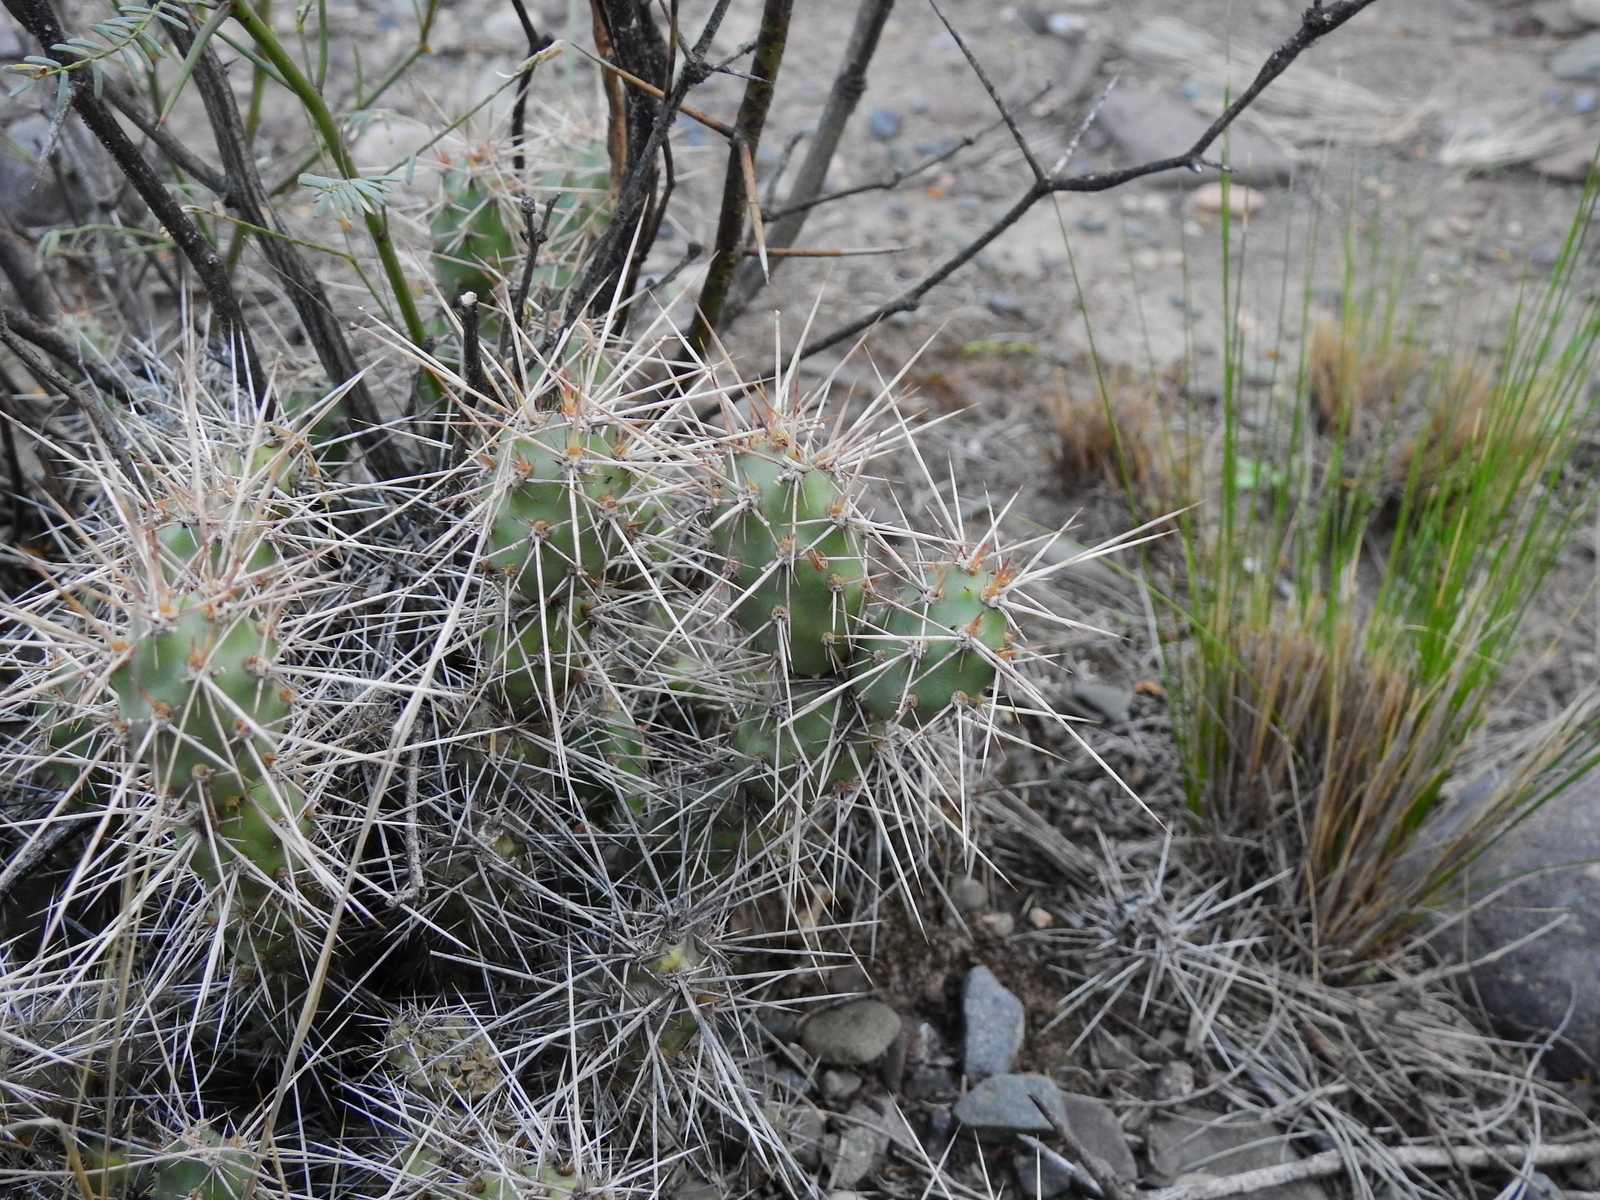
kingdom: Plantae
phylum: Tracheophyta
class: Magnoliopsida
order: Caryophyllales
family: Cactaceae
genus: Airampoa
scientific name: Airampoa corrugata
